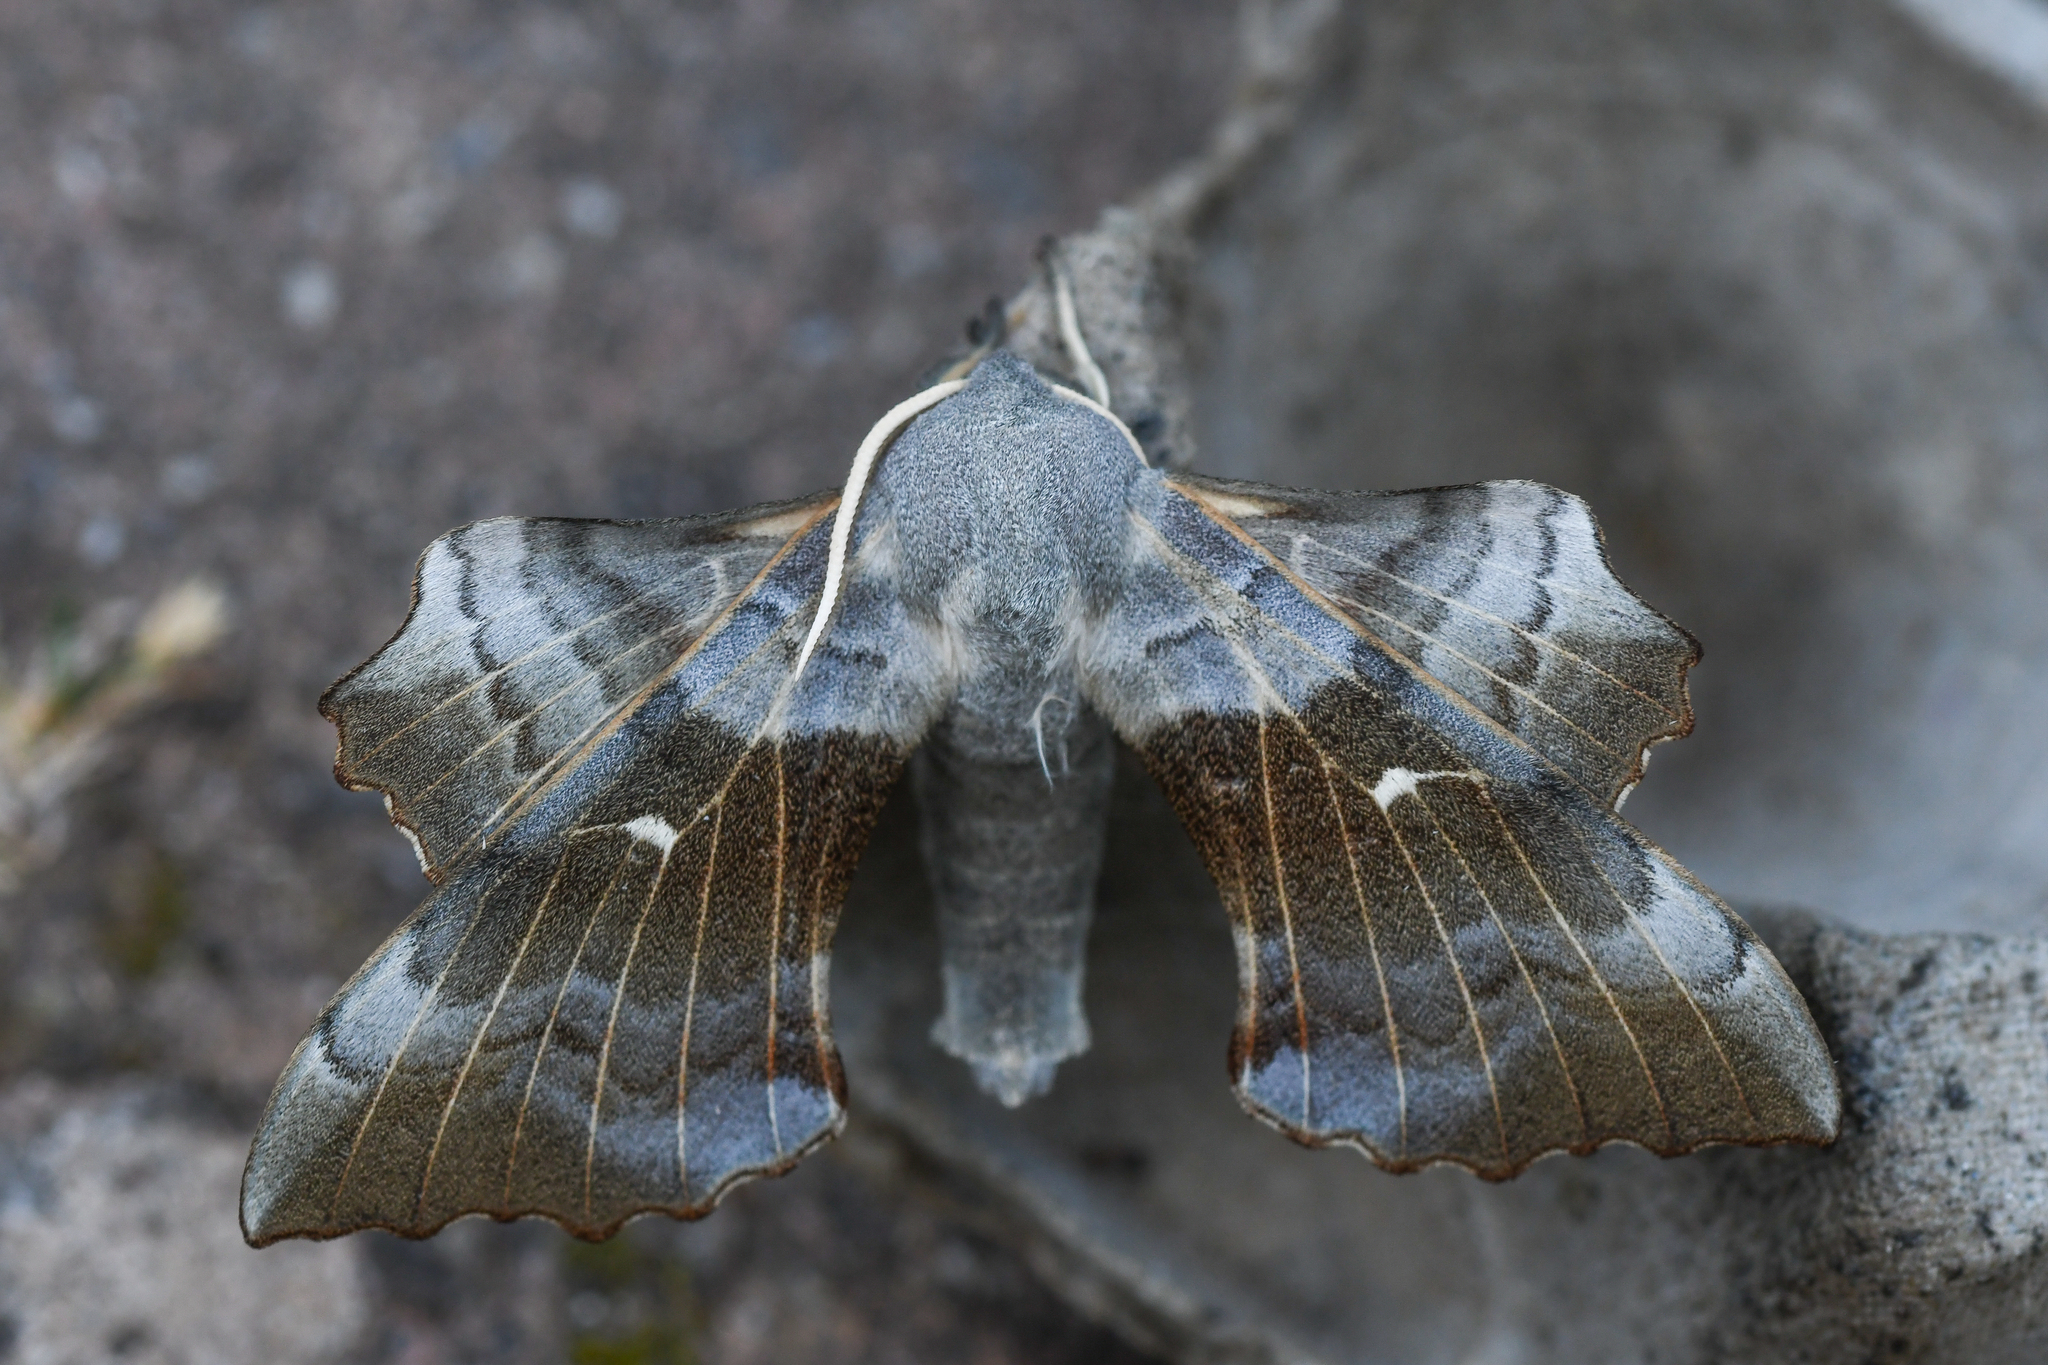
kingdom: Animalia
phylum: Arthropoda
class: Insecta
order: Lepidoptera
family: Sphingidae
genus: Laothoe
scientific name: Laothoe populi
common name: Poplar hawk-moth
